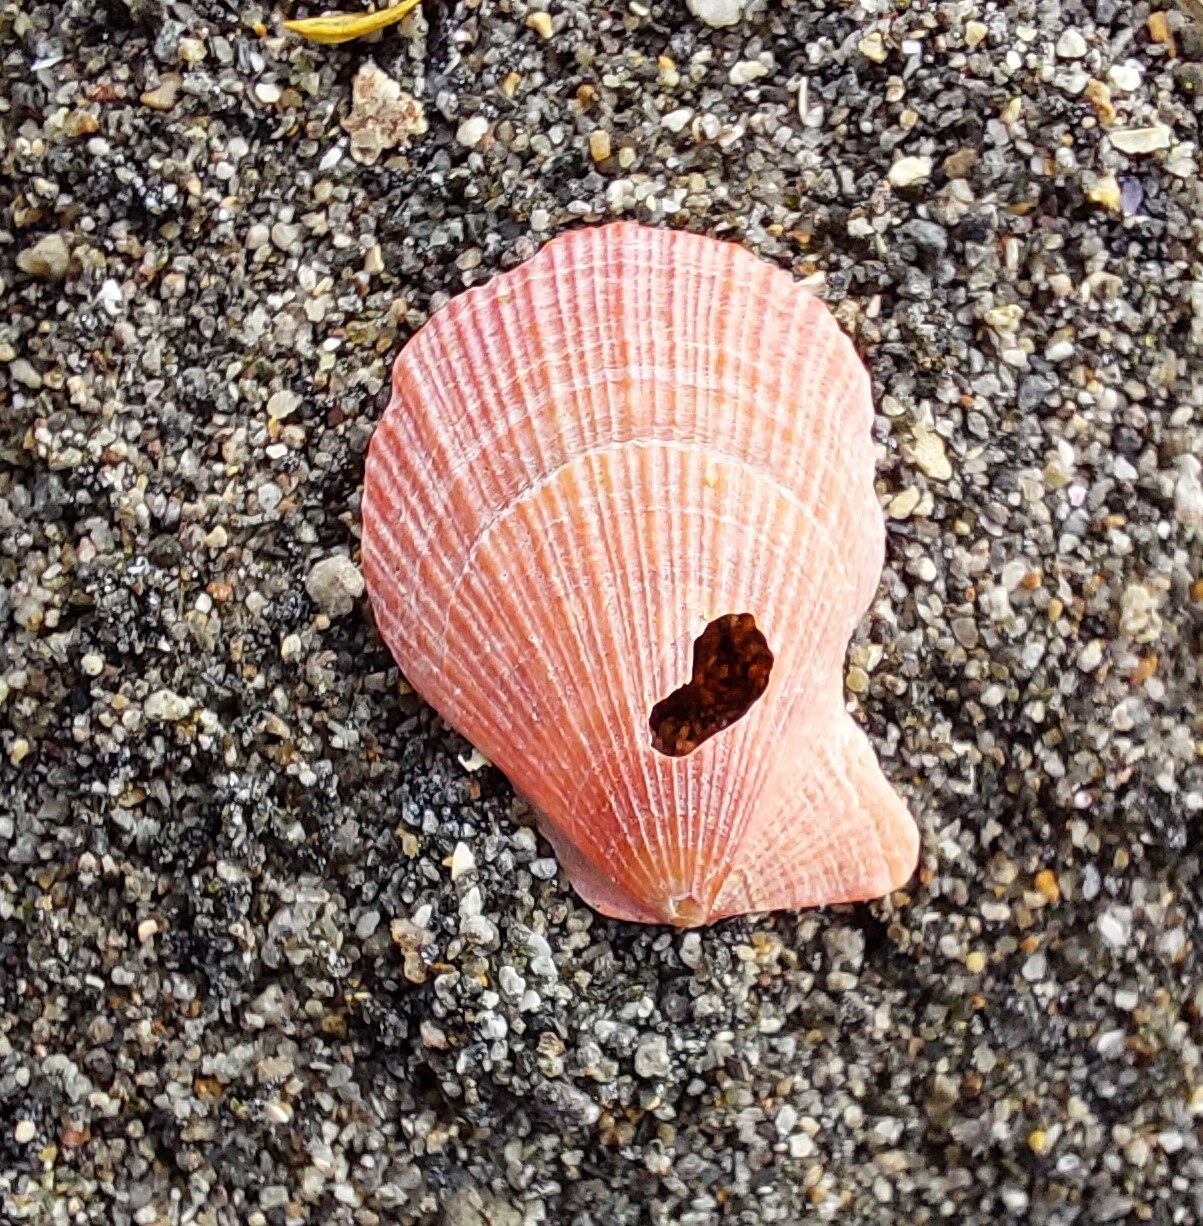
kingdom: Animalia
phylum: Mollusca
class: Bivalvia
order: Pectinida
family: Pectinidae
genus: Talochlamys
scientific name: Talochlamys zelandiae
